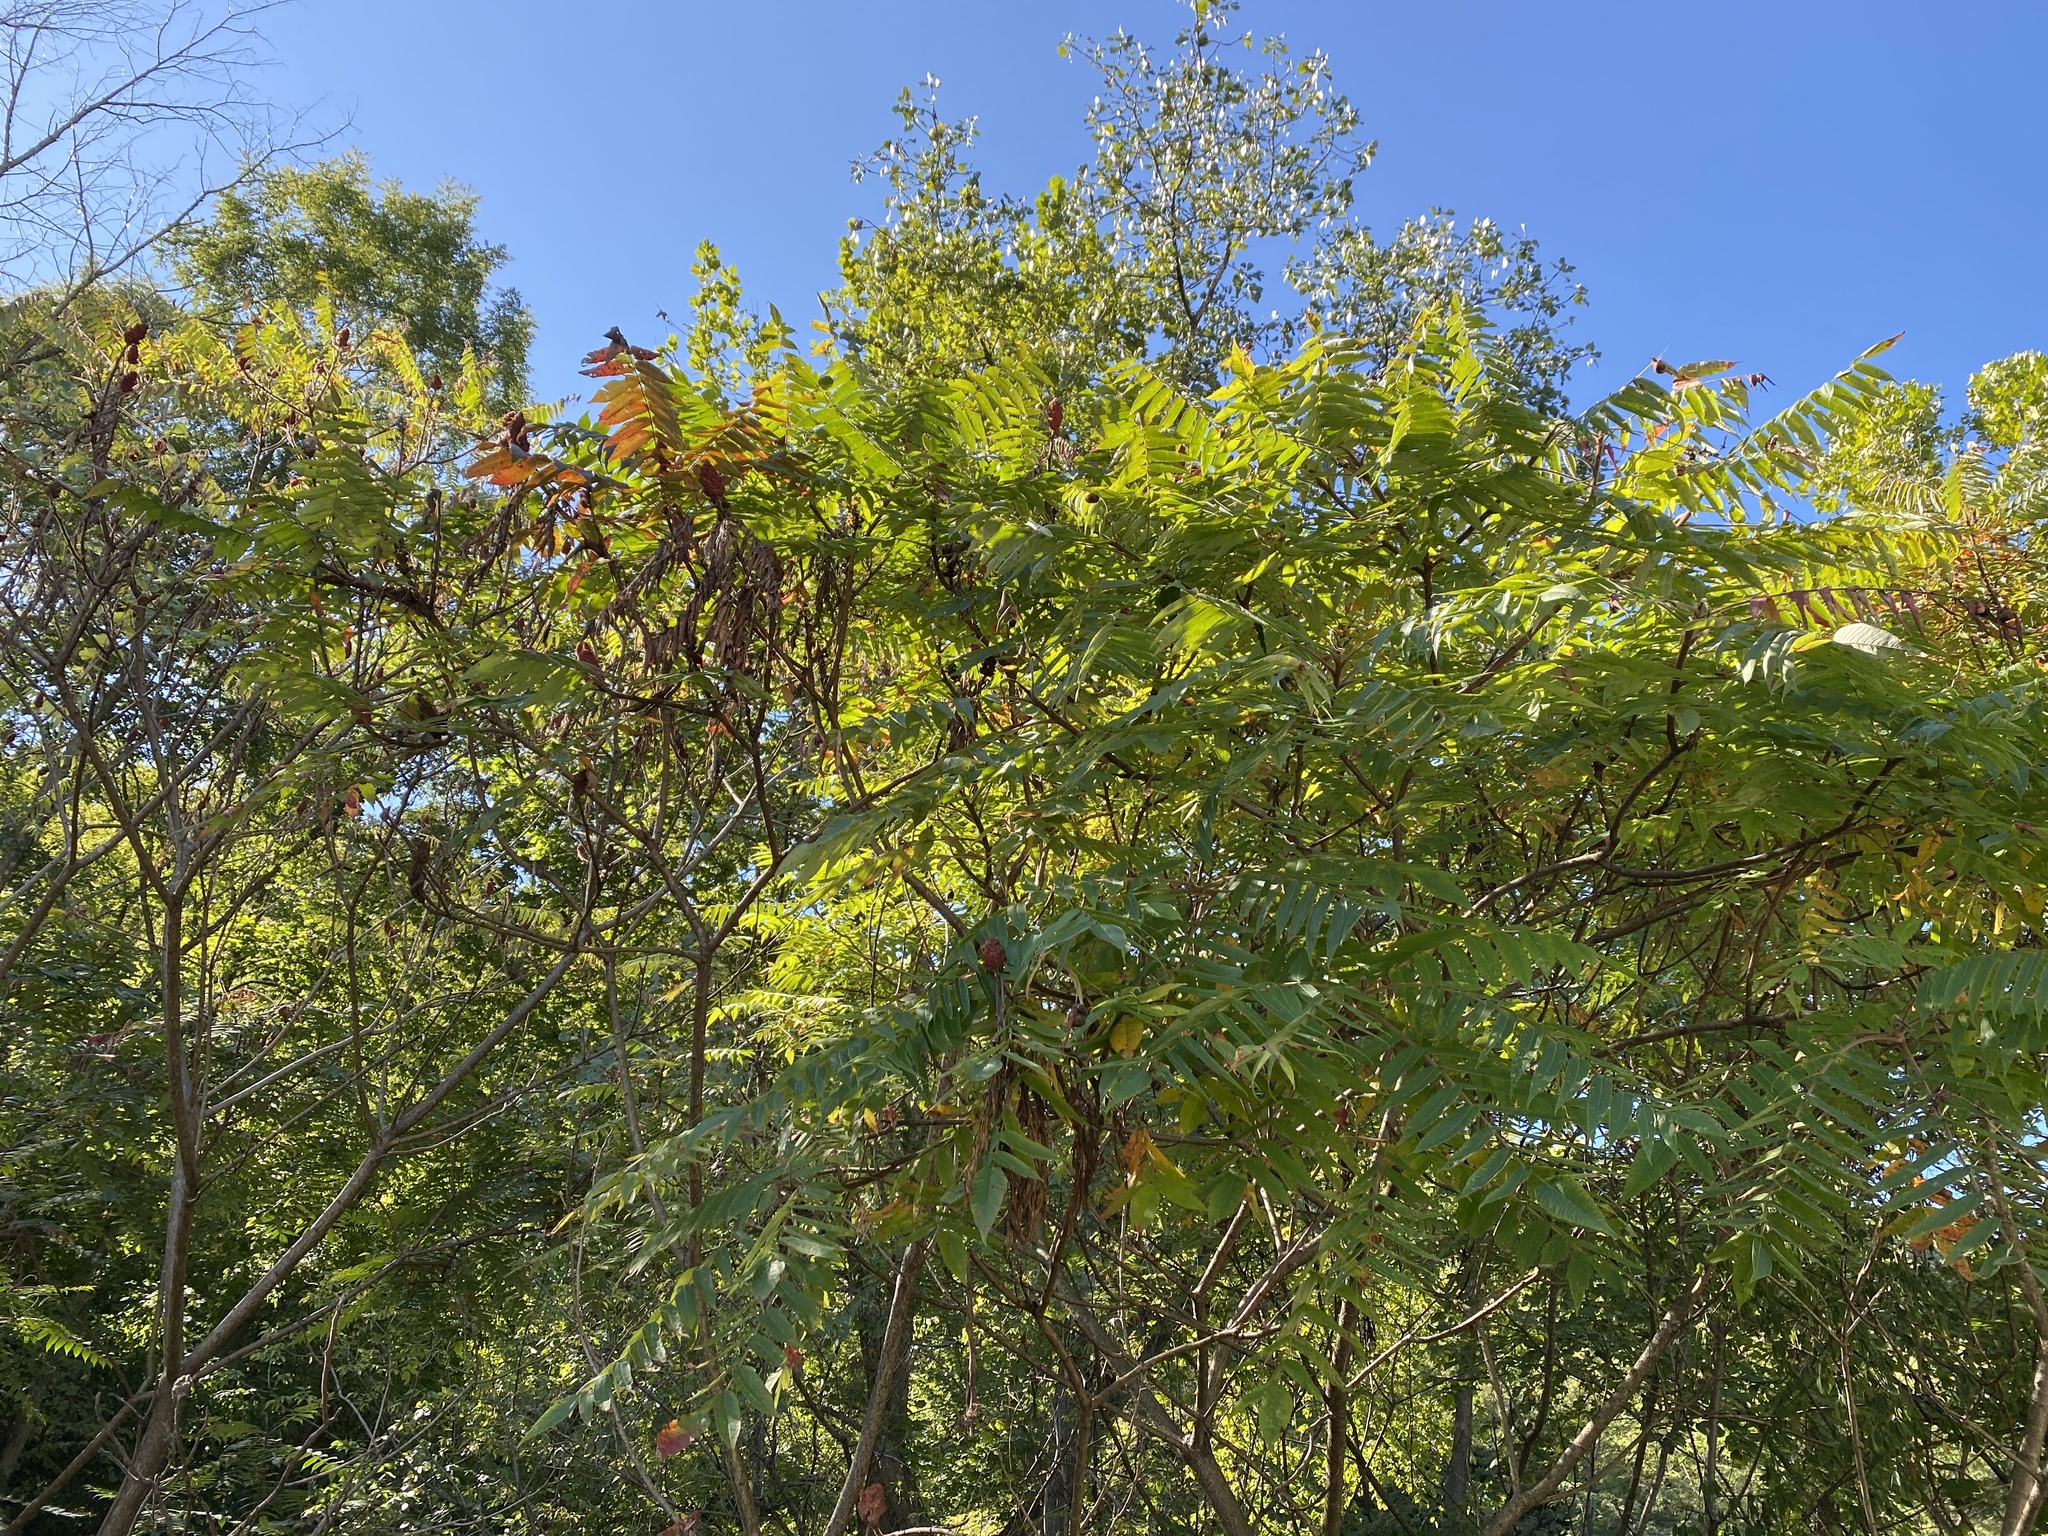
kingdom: Plantae
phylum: Tracheophyta
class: Magnoliopsida
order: Sapindales
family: Anacardiaceae
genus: Rhus
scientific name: Rhus typhina
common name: Staghorn sumac
